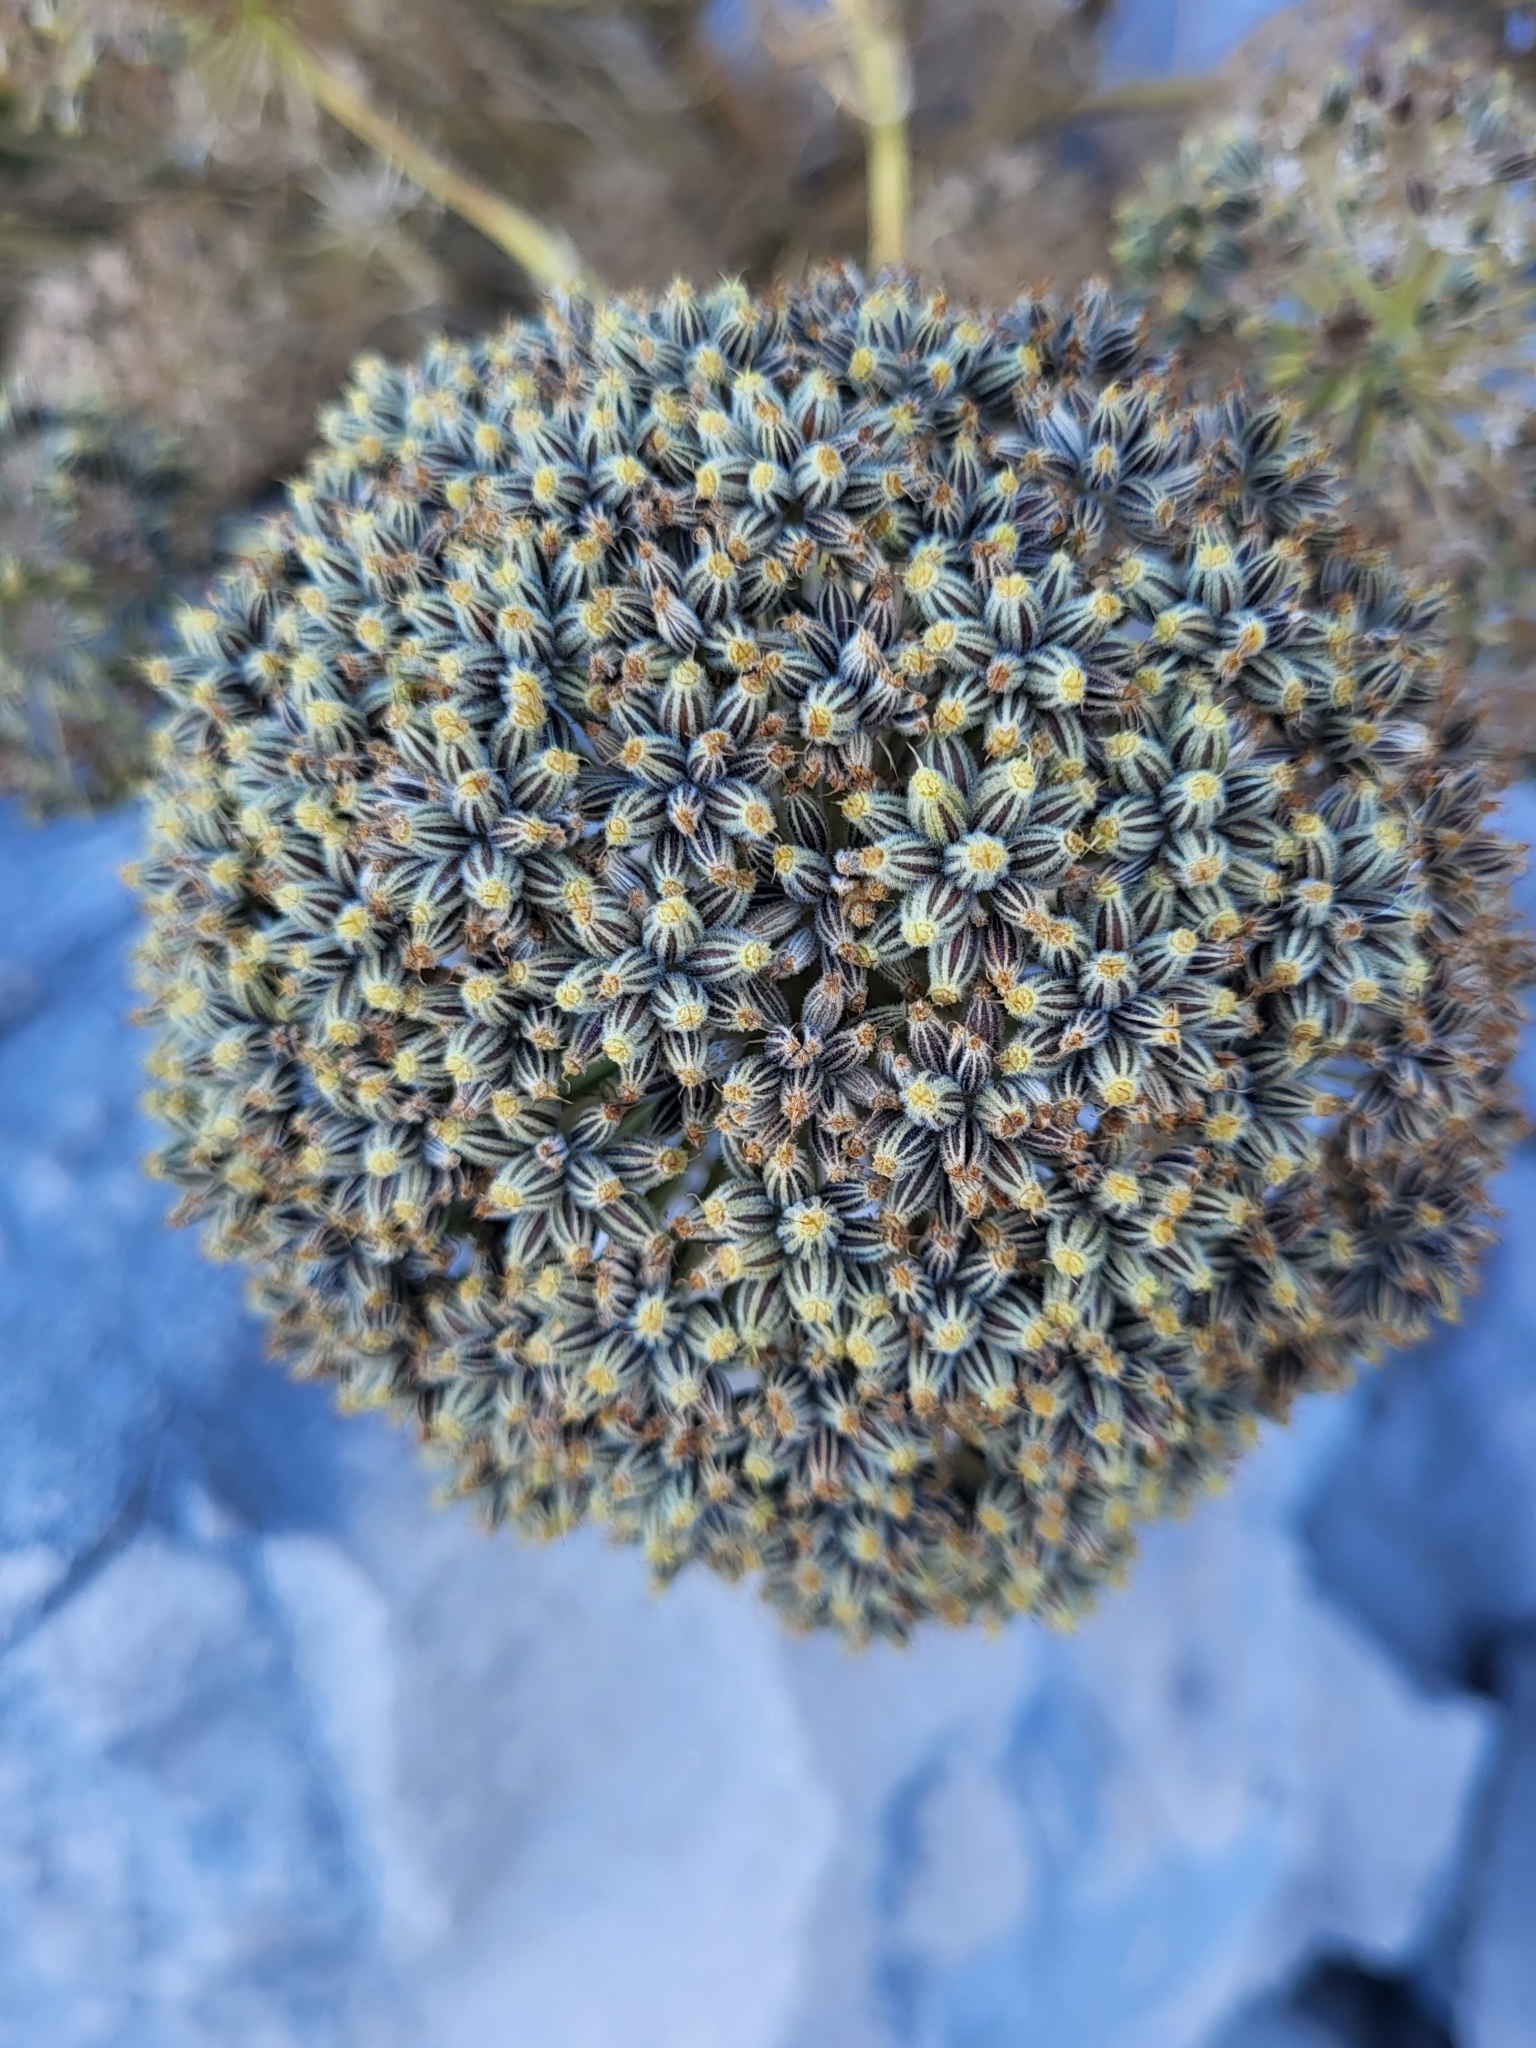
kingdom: Plantae
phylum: Tracheophyta
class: Magnoliopsida
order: Apiales
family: Apiaceae
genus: Athamanta
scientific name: Athamanta ramosissima
